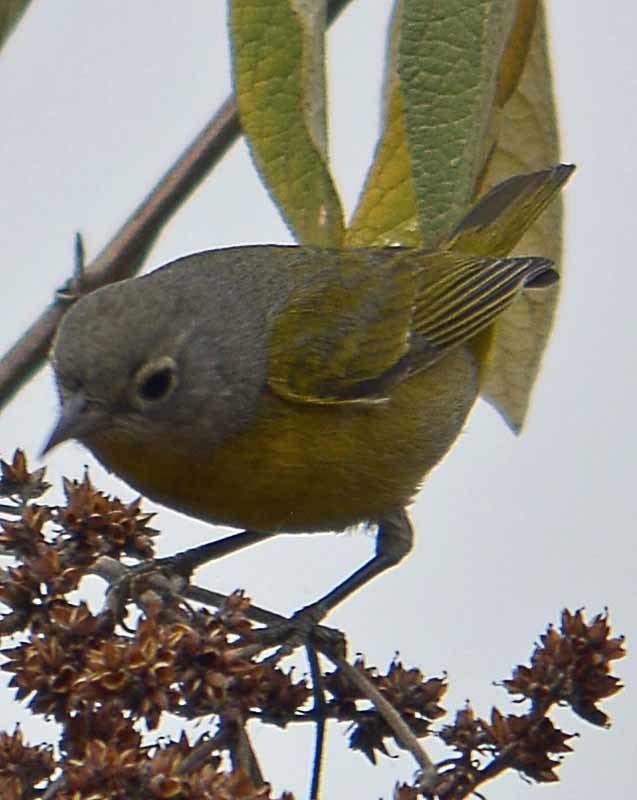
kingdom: Animalia
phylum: Chordata
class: Aves
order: Passeriformes
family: Parulidae
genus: Leiothlypis
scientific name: Leiothlypis ruficapilla
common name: Nashville warbler
